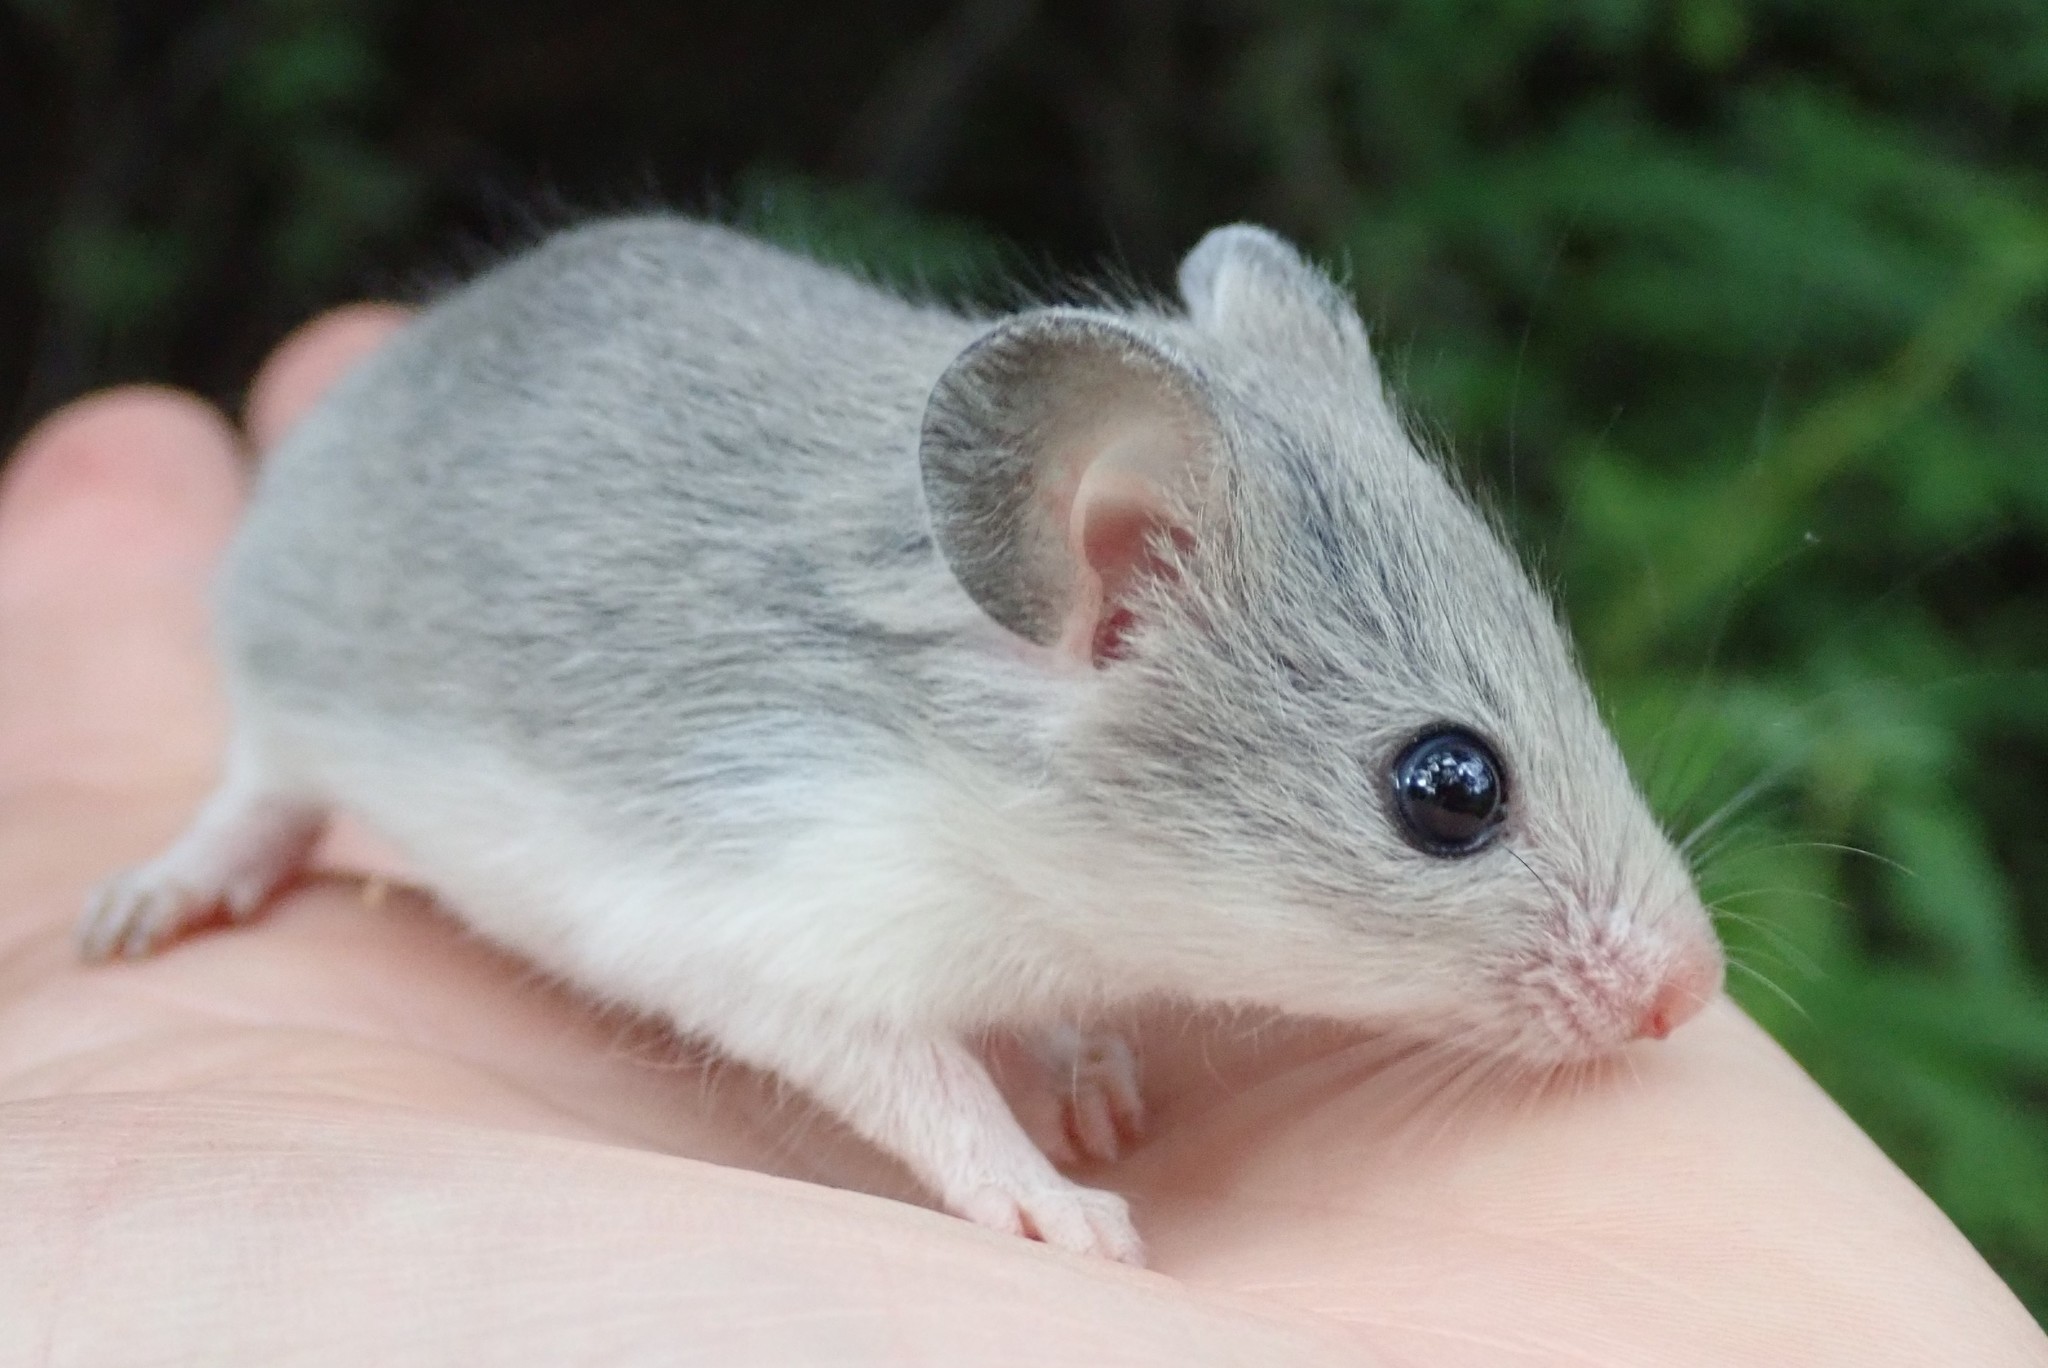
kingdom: Animalia
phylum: Chordata
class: Mammalia
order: Rodentia
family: Nesomyidae
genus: Saccostomus
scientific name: Saccostomus campestris
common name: Southern african pouched mouse
